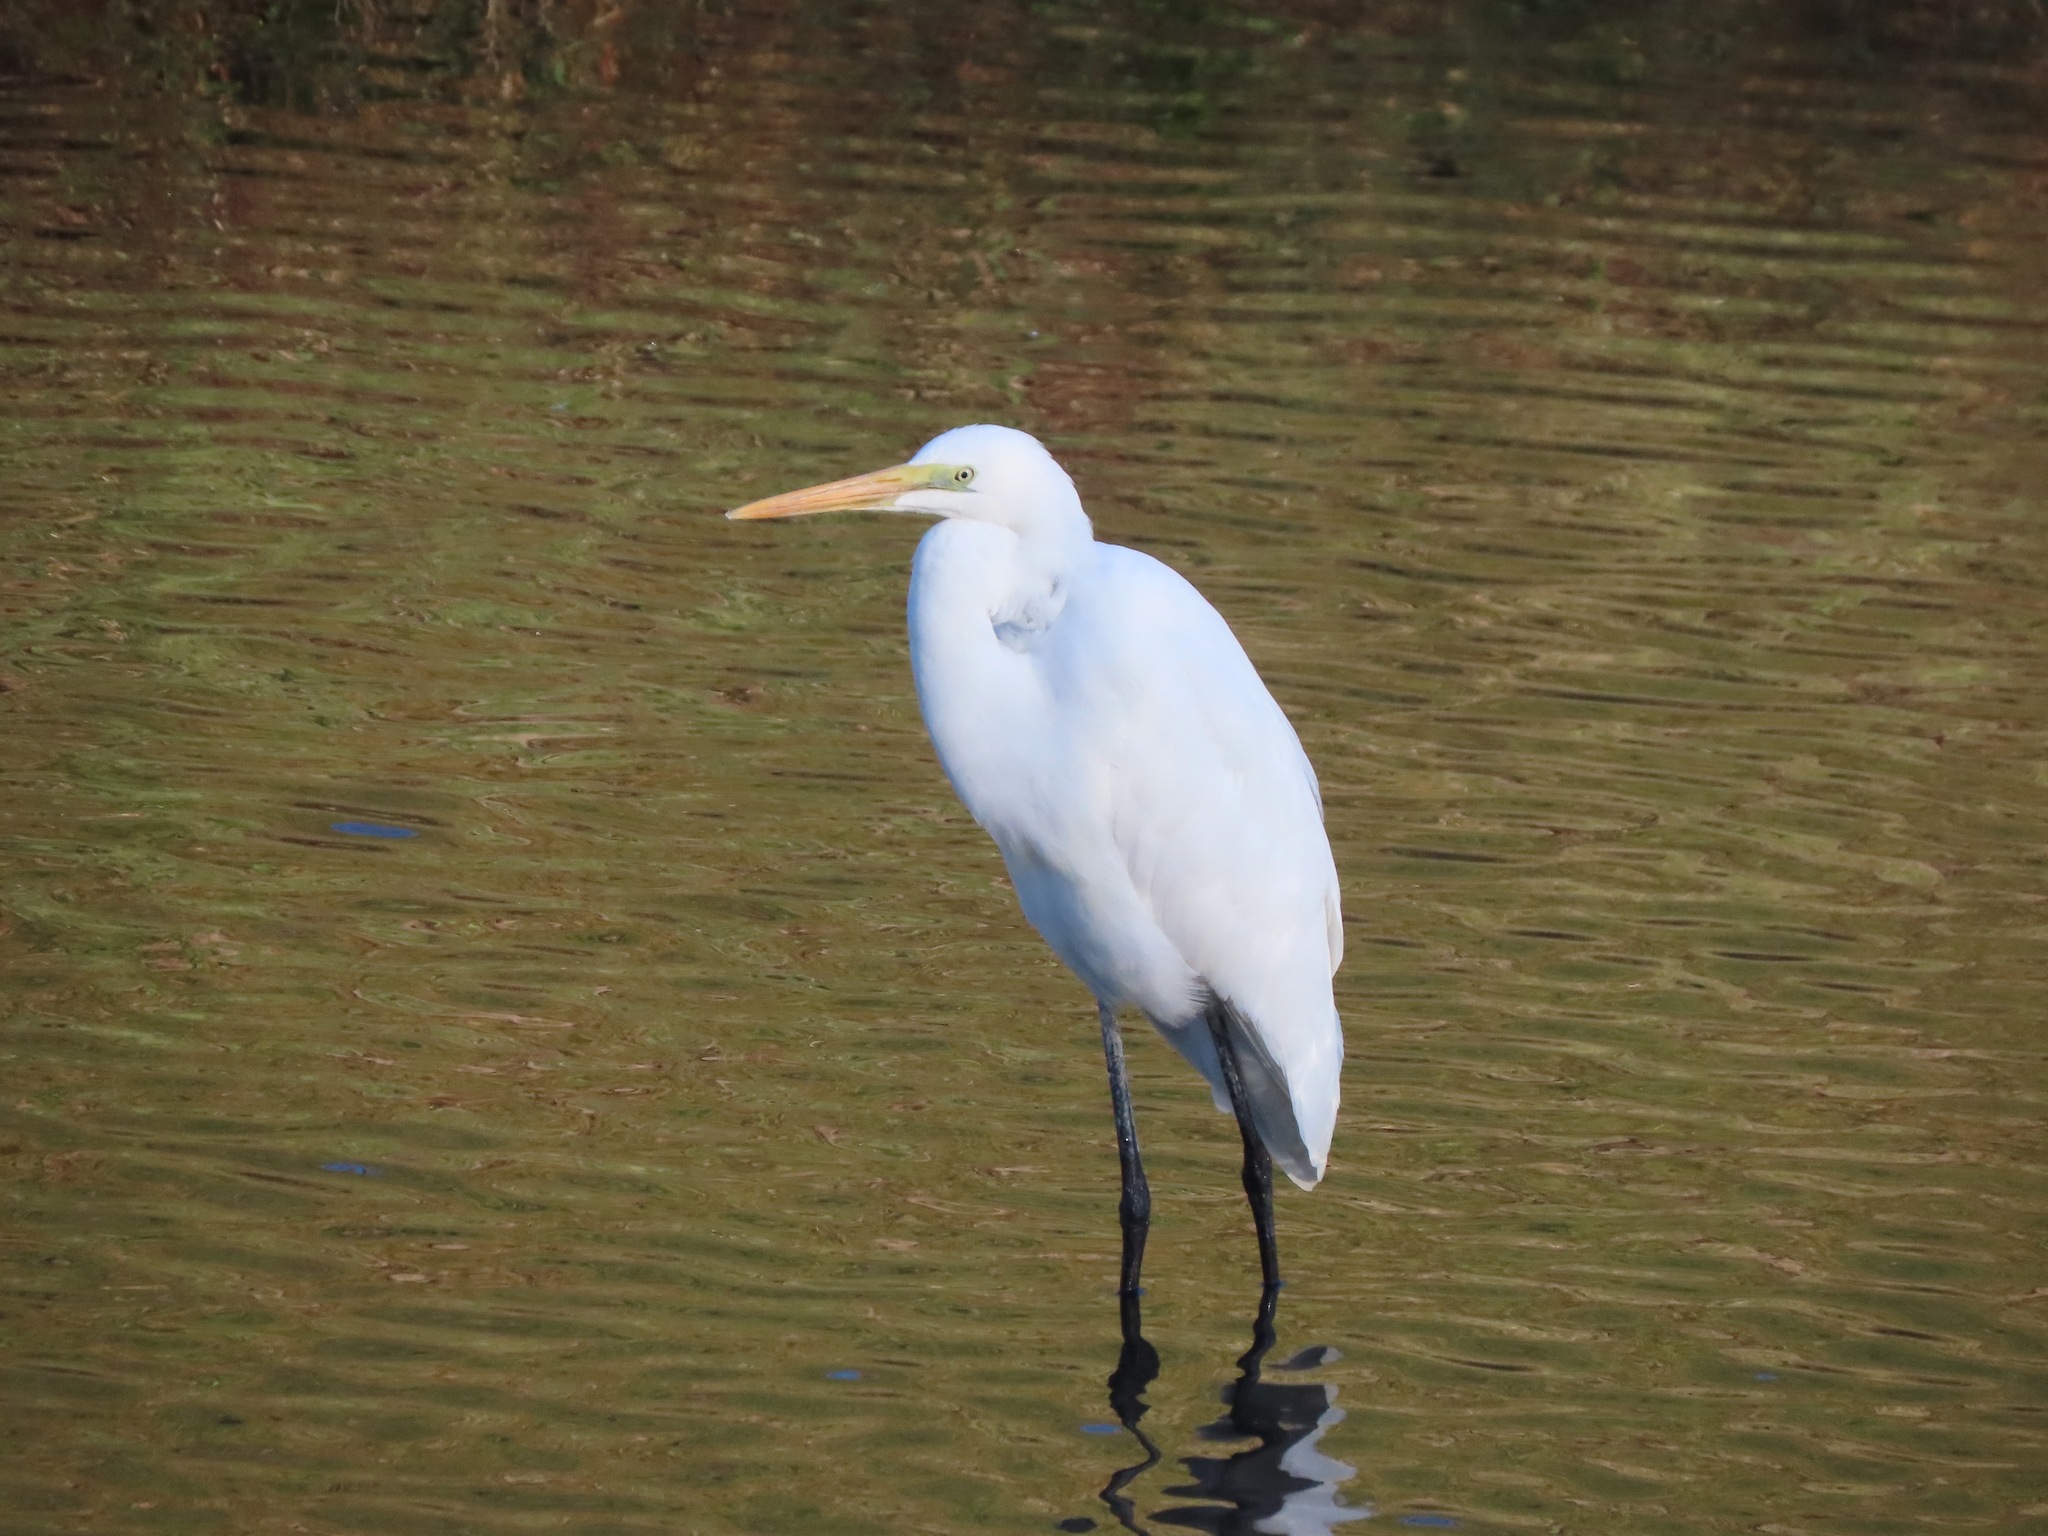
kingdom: Animalia
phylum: Chordata
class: Aves
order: Pelecaniformes
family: Ardeidae
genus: Ardea
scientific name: Ardea alba
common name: Great egret
